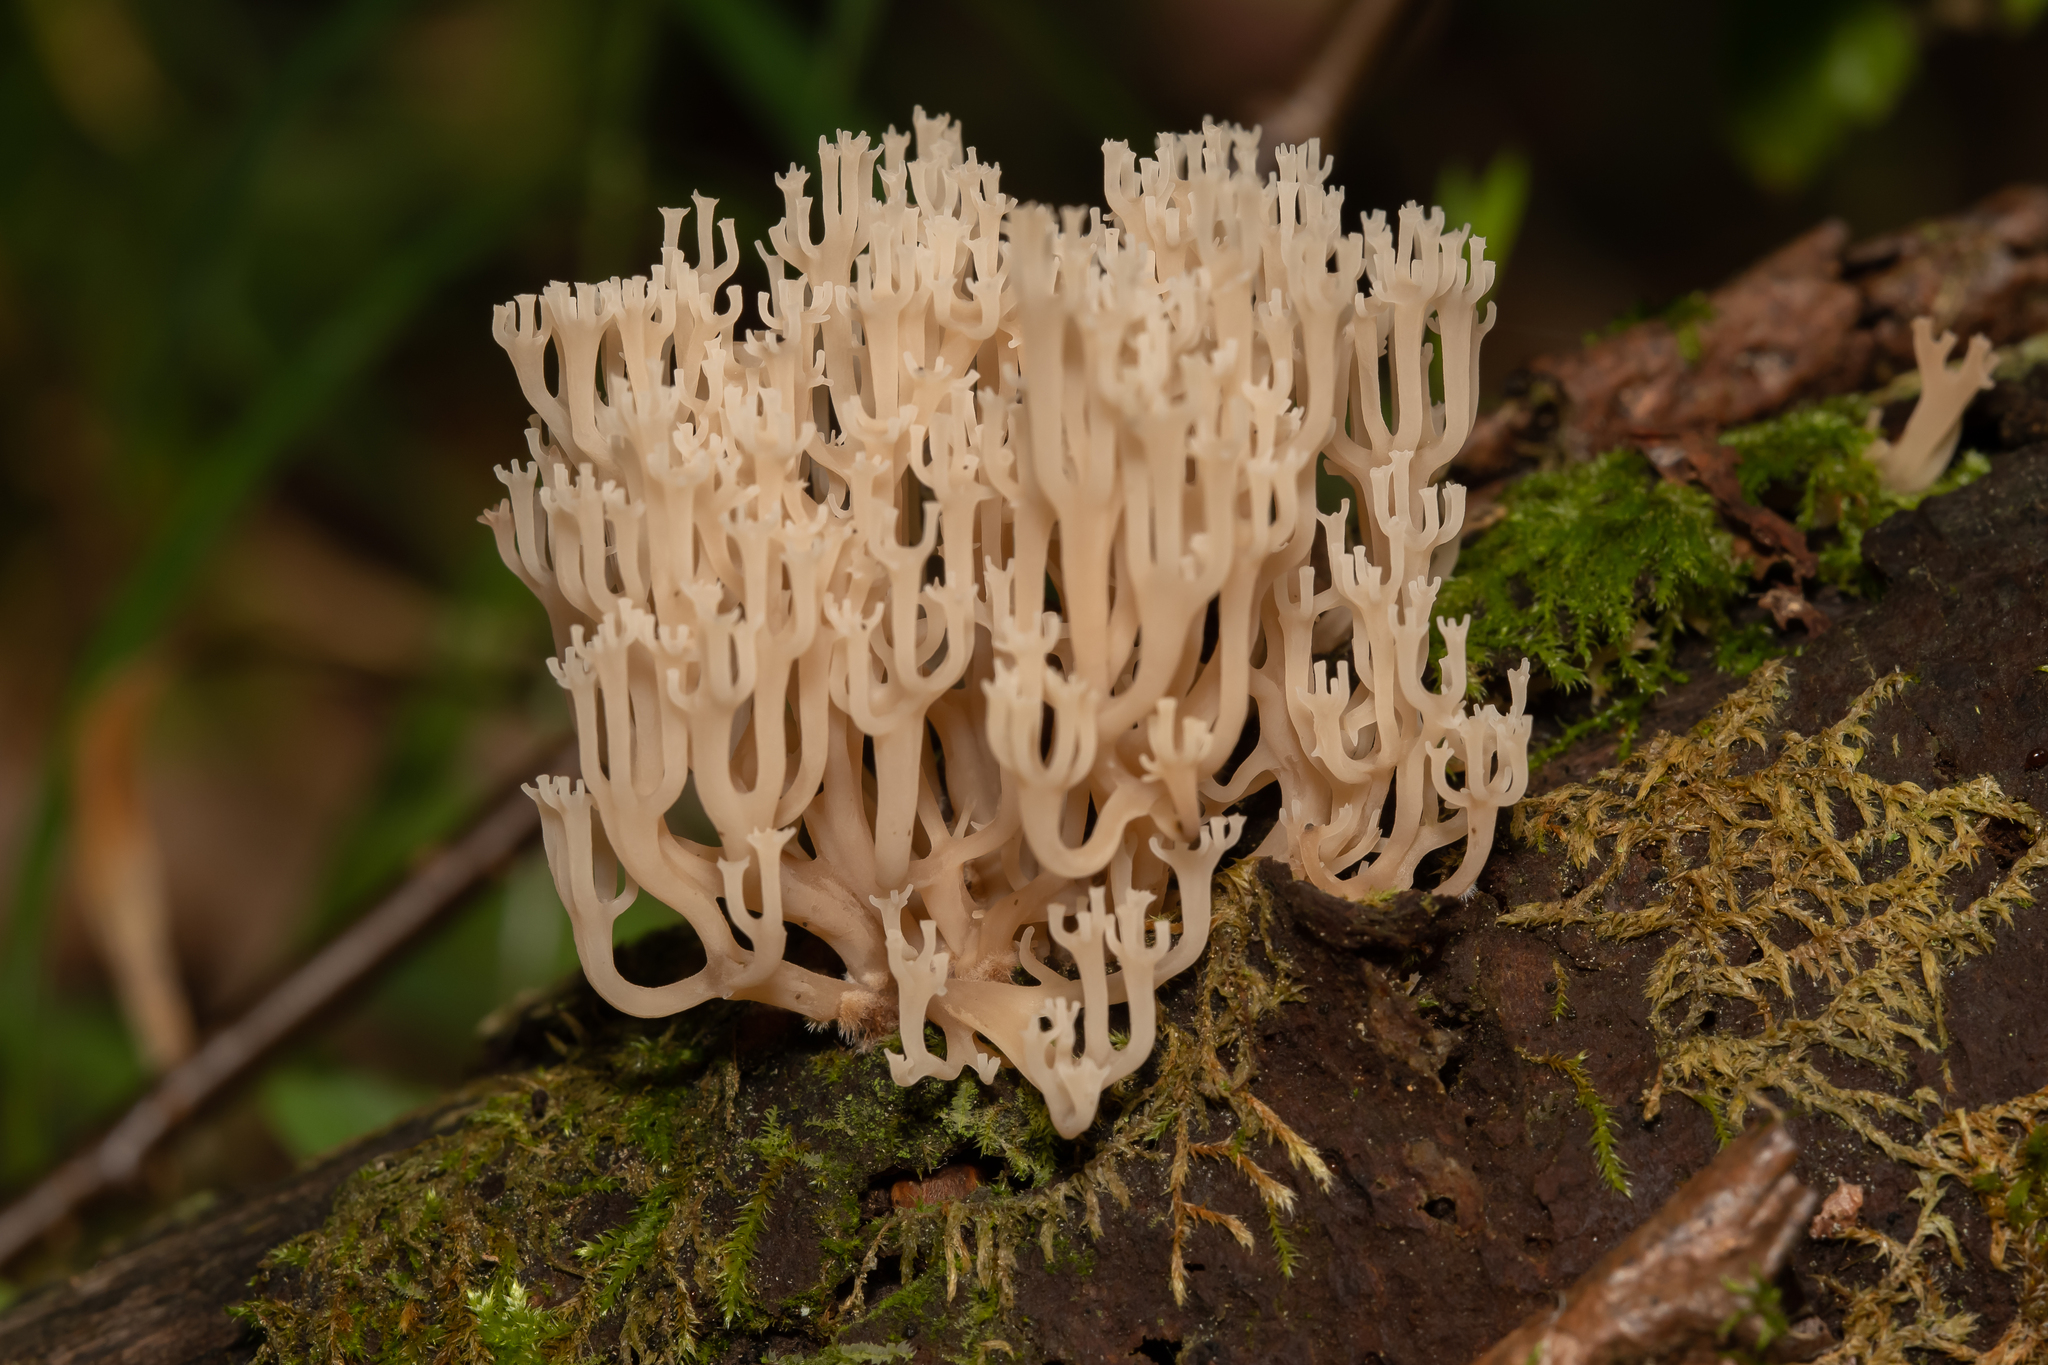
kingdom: Fungi
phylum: Basidiomycota
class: Agaricomycetes
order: Russulales
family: Auriscalpiaceae
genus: Artomyces
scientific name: Artomyces pyxidatus
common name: Crown-tipped coral fungus
